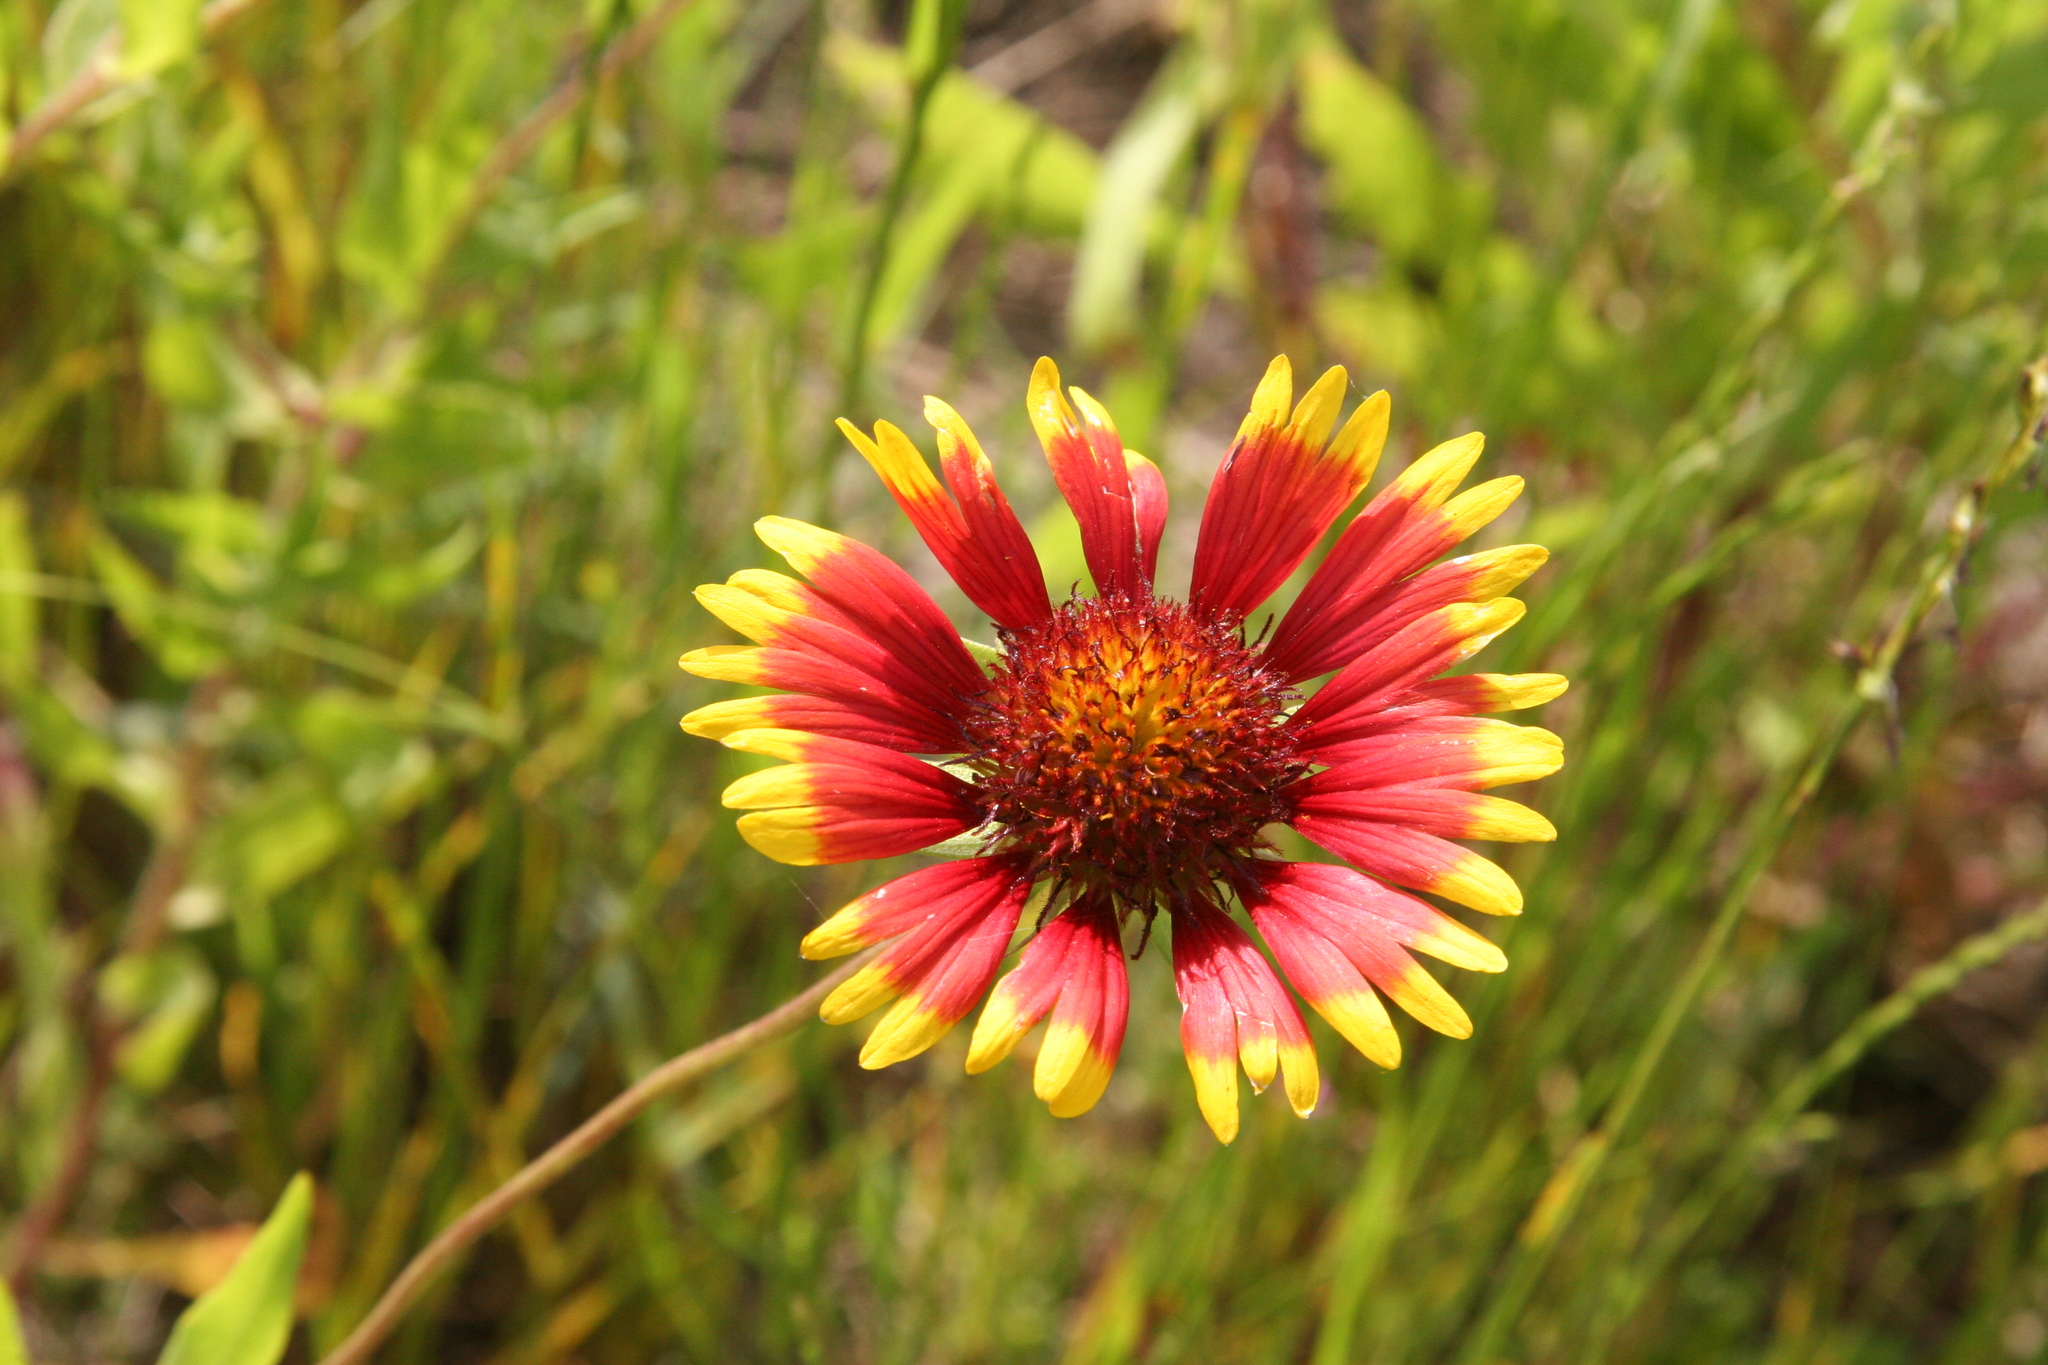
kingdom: Plantae
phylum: Tracheophyta
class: Magnoliopsida
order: Asterales
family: Asteraceae
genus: Gaillardia
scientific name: Gaillardia pulchella
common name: Firewheel
